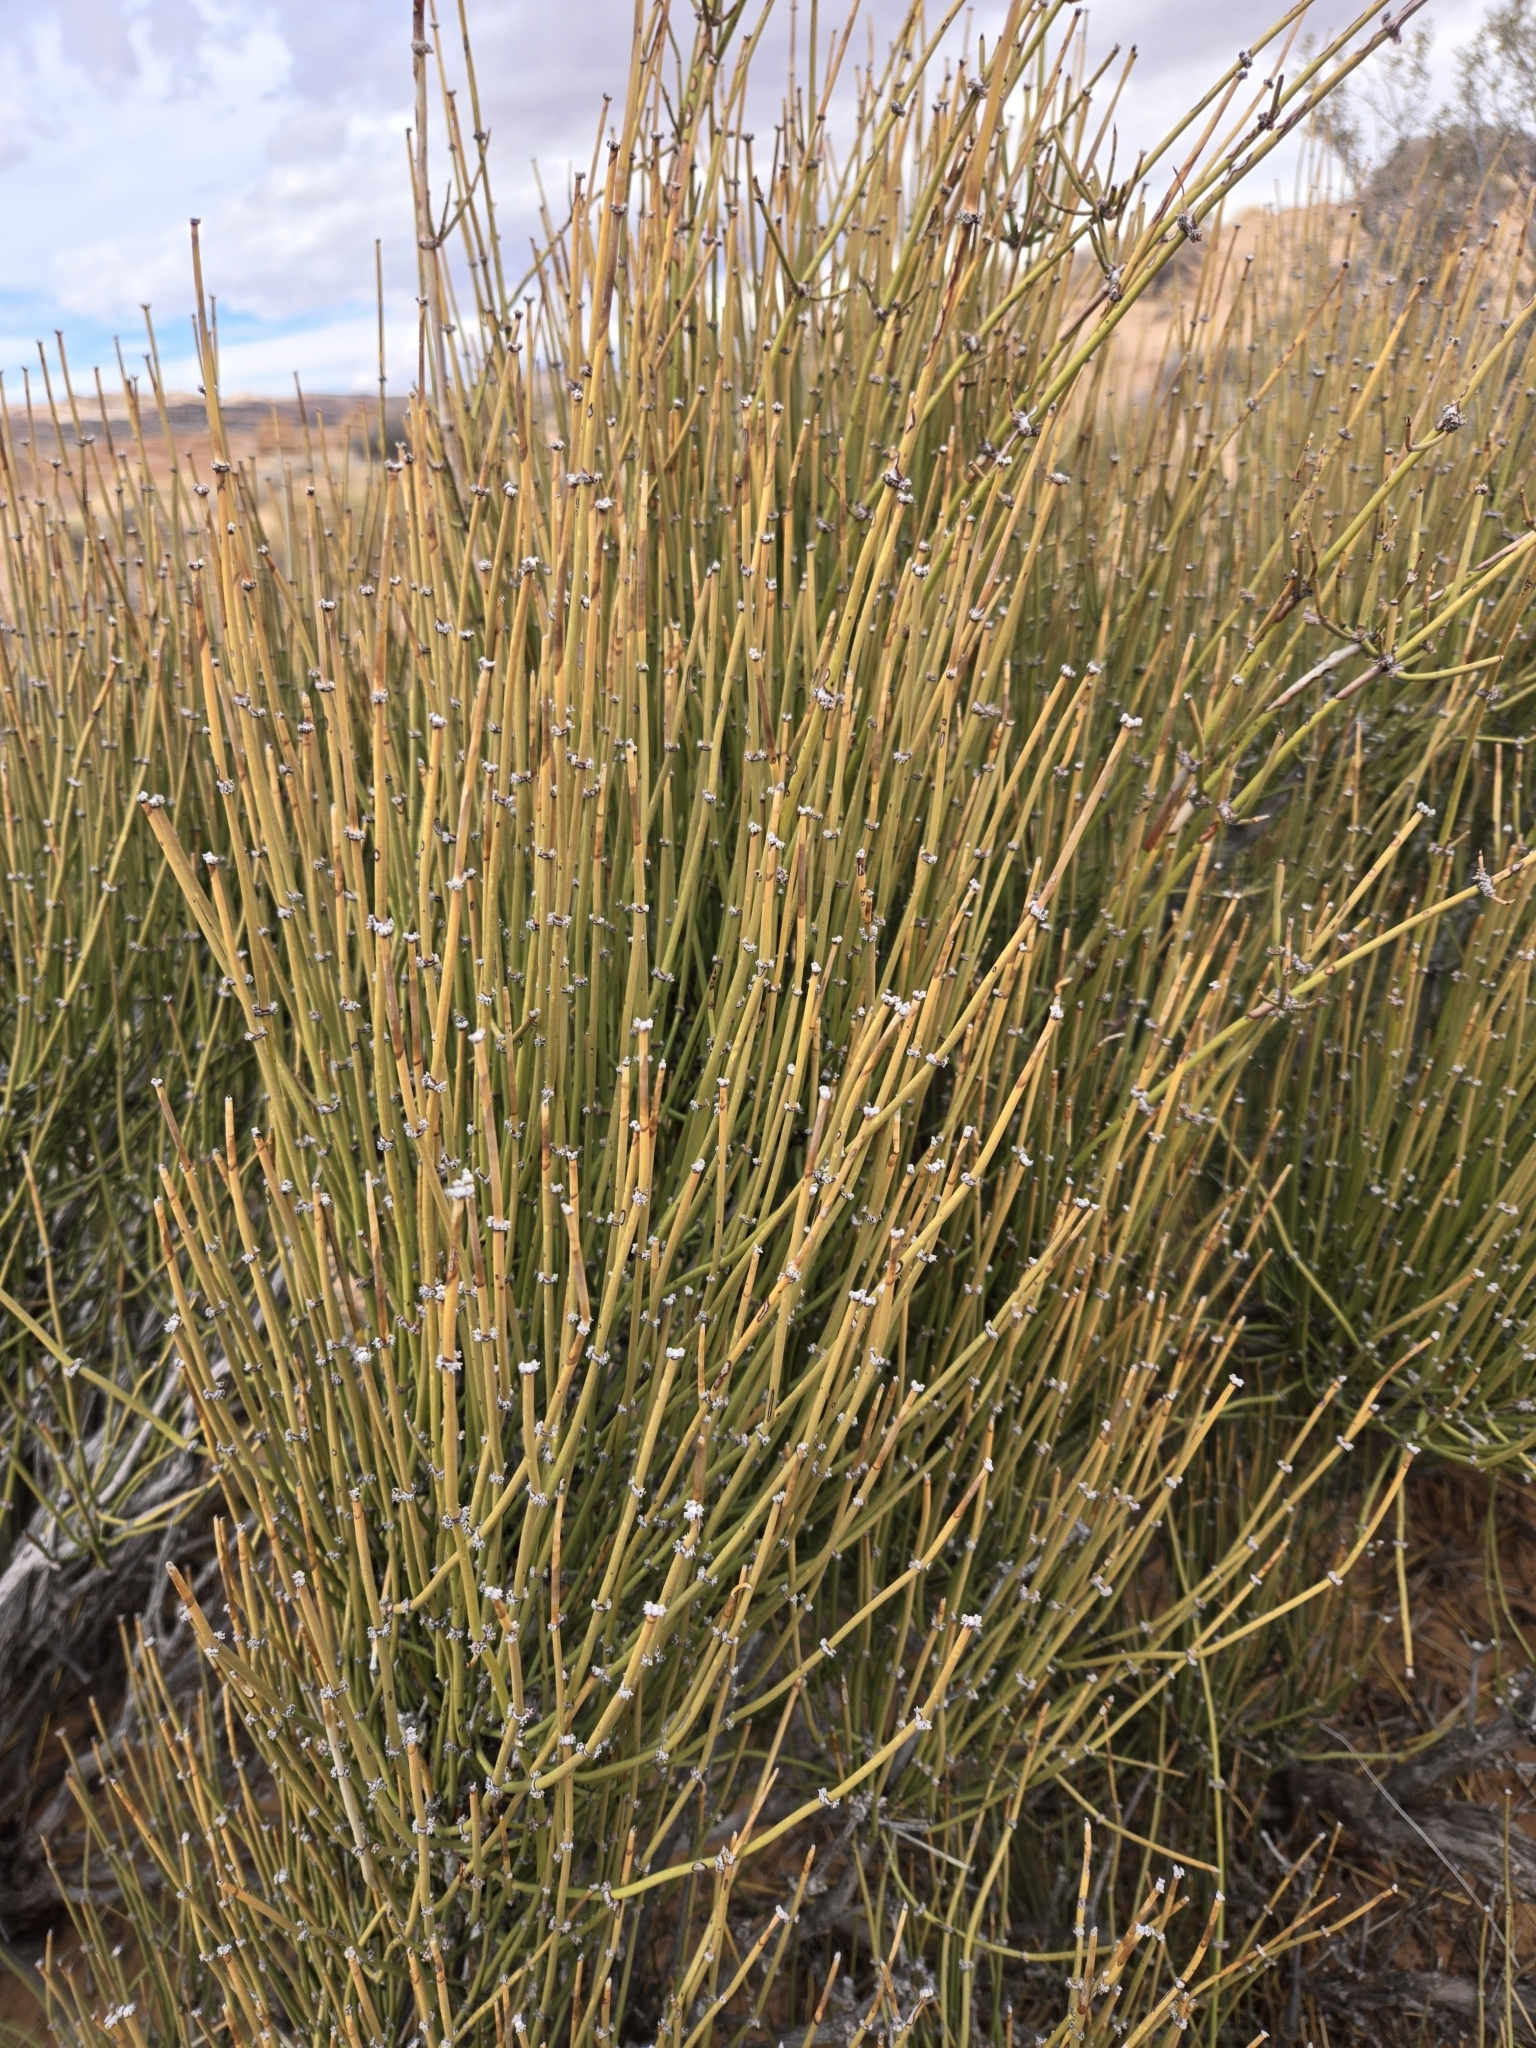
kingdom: Plantae
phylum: Tracheophyta
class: Gnetopsida
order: Ephedrales
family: Ephedraceae
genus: Ephedra
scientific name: Ephedra viridis
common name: Green ephedra
